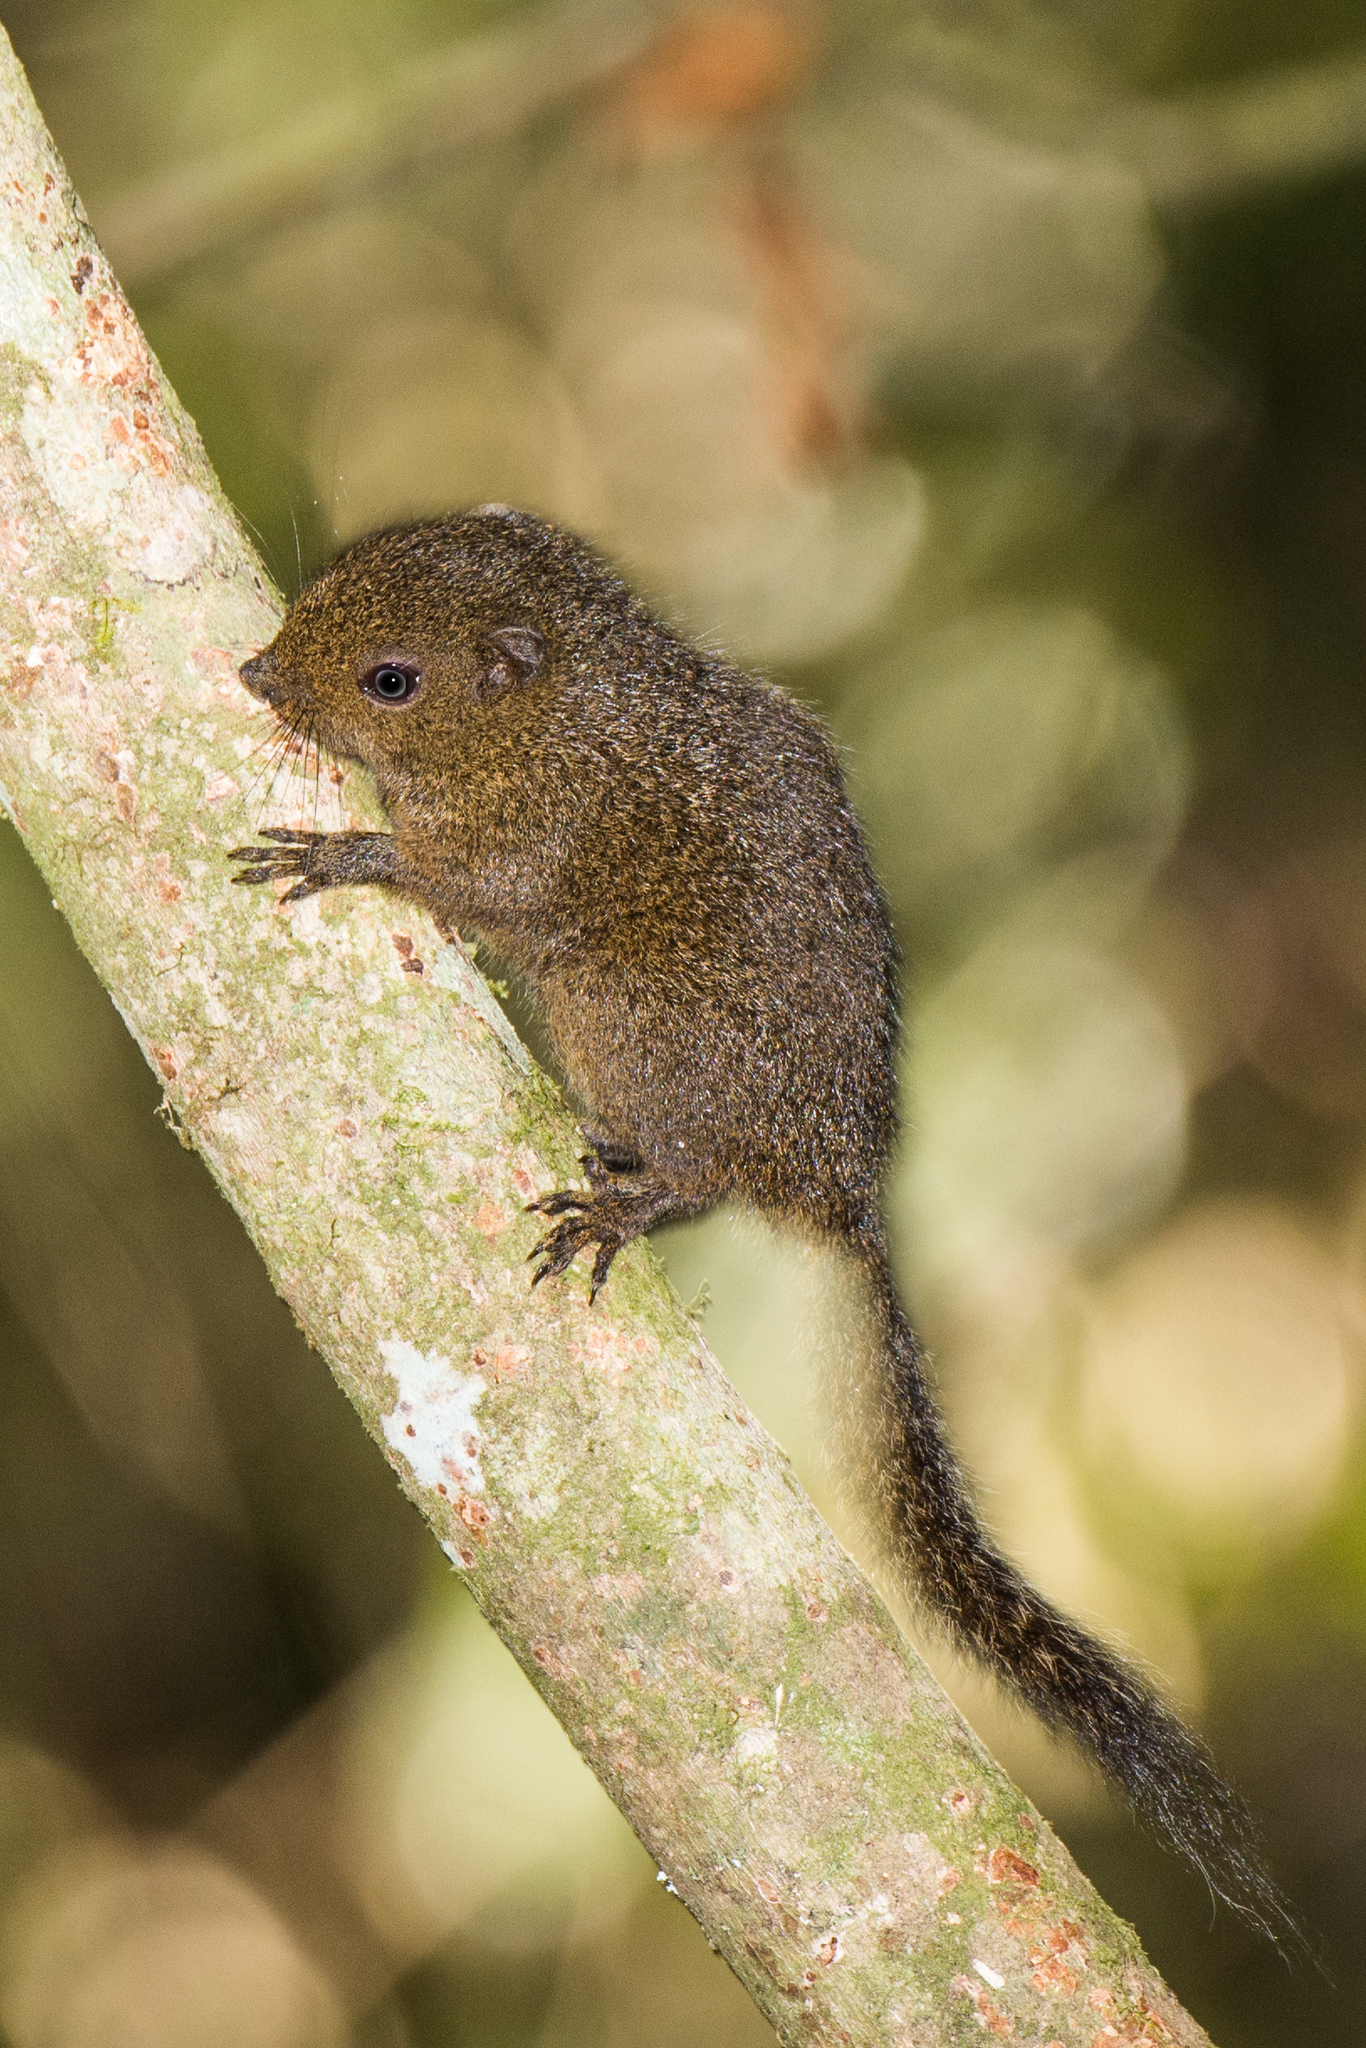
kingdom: Animalia
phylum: Chordata
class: Mammalia
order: Rodentia
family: Sciuridae
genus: Prosciurillus
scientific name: Prosciurillus topapuensis
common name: Mount topapu squirrel
